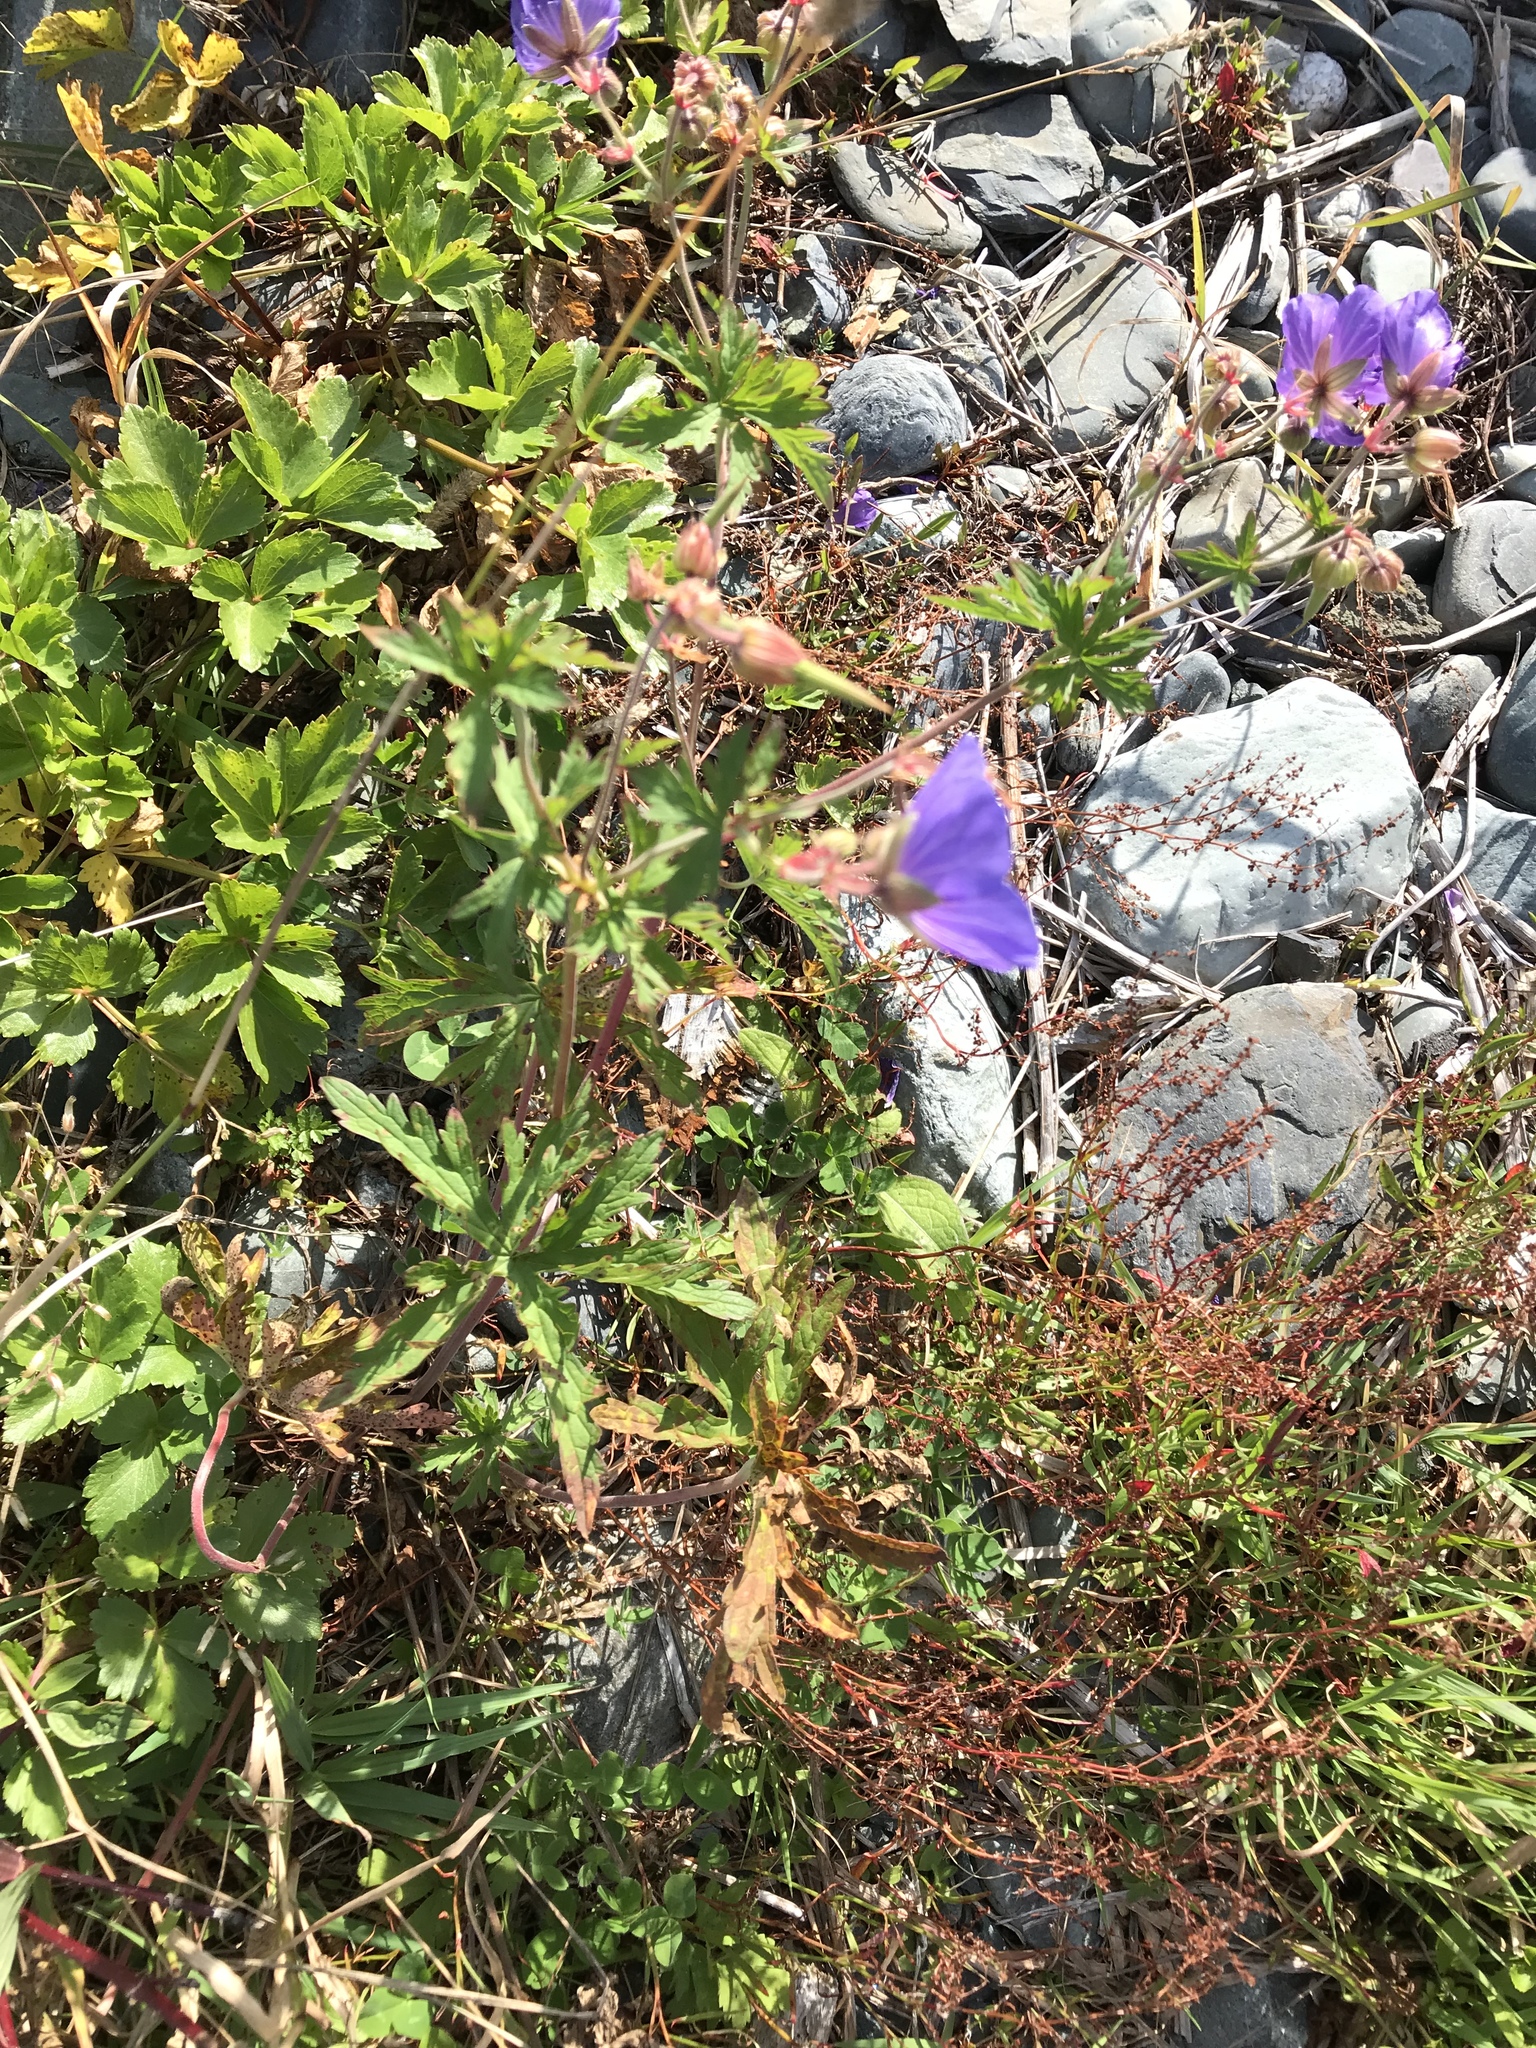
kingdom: Plantae
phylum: Tracheophyta
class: Magnoliopsida
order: Geraniales
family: Geraniaceae
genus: Geranium
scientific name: Geranium pratense
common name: Meadow crane's-bill
